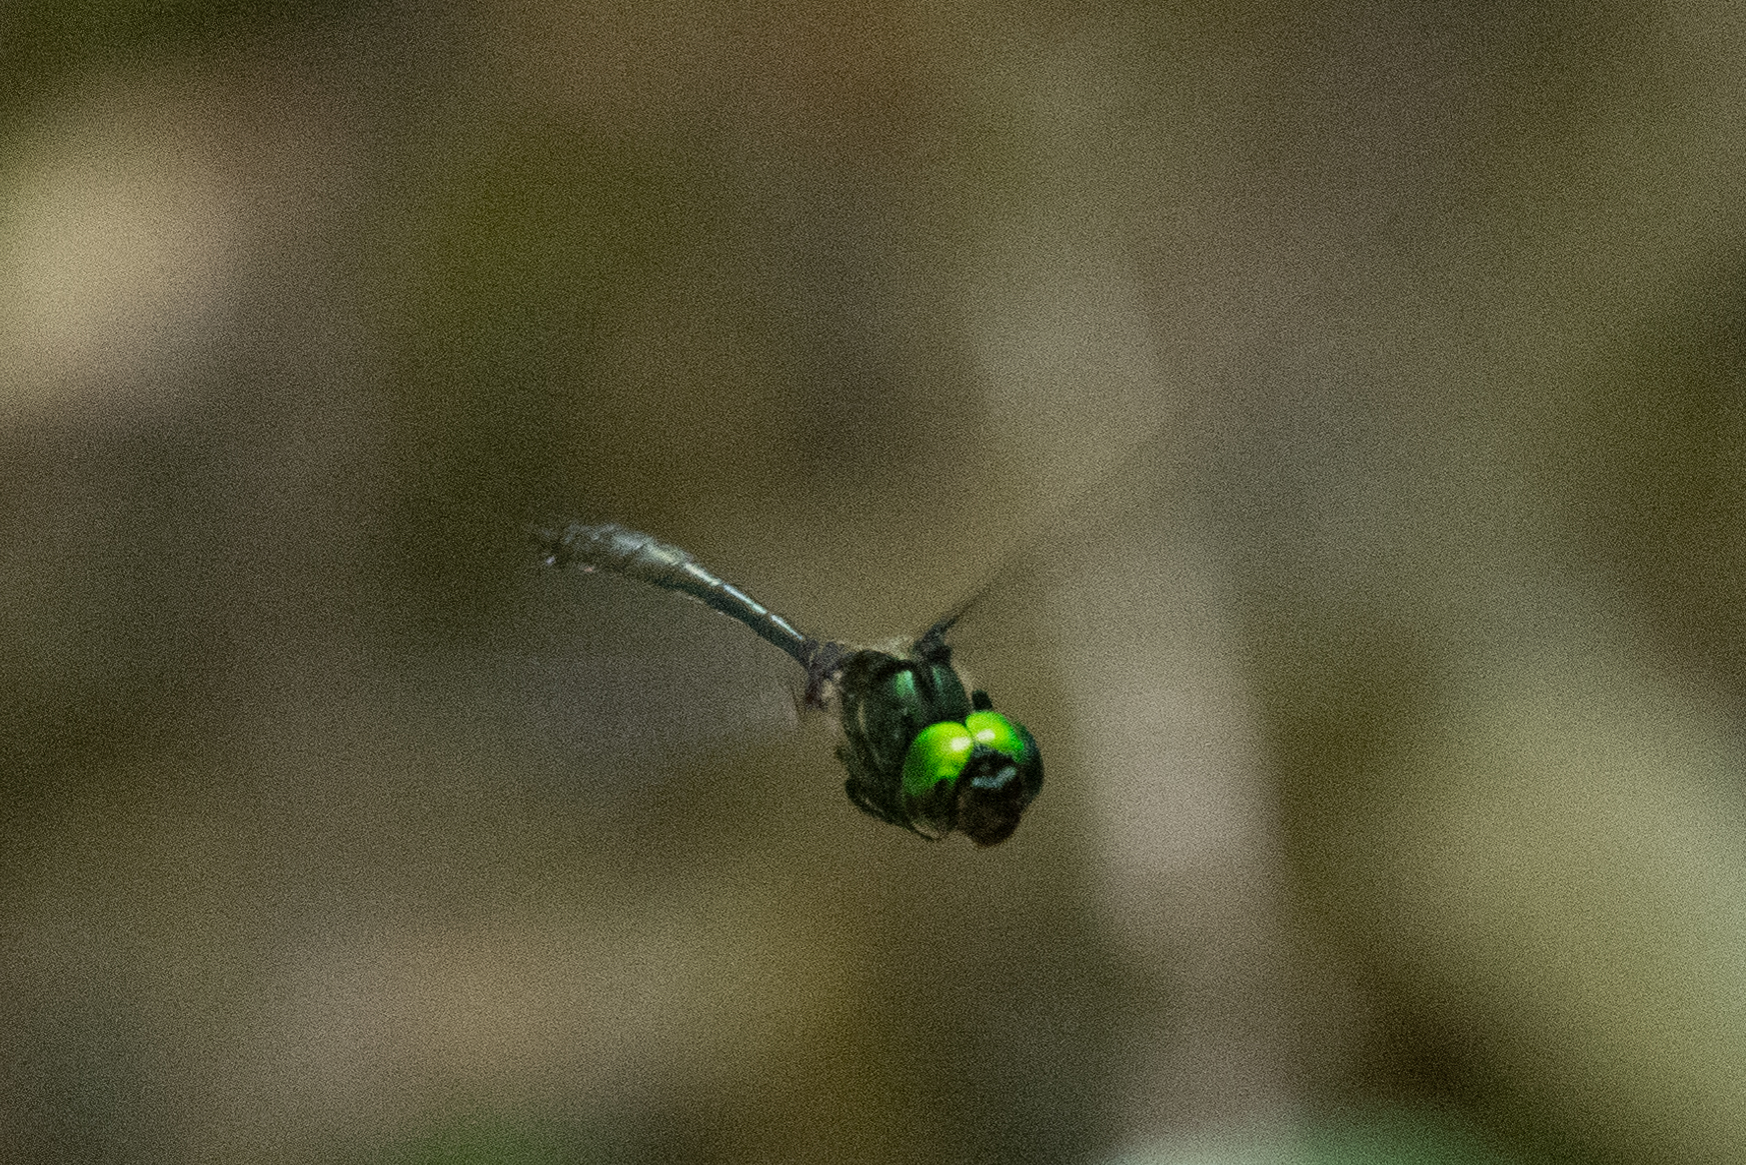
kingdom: Animalia
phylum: Arthropoda
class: Insecta
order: Odonata
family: Corduliidae
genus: Somatochlora
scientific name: Somatochlora tenebrosa
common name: Clamp-tipped emerald
